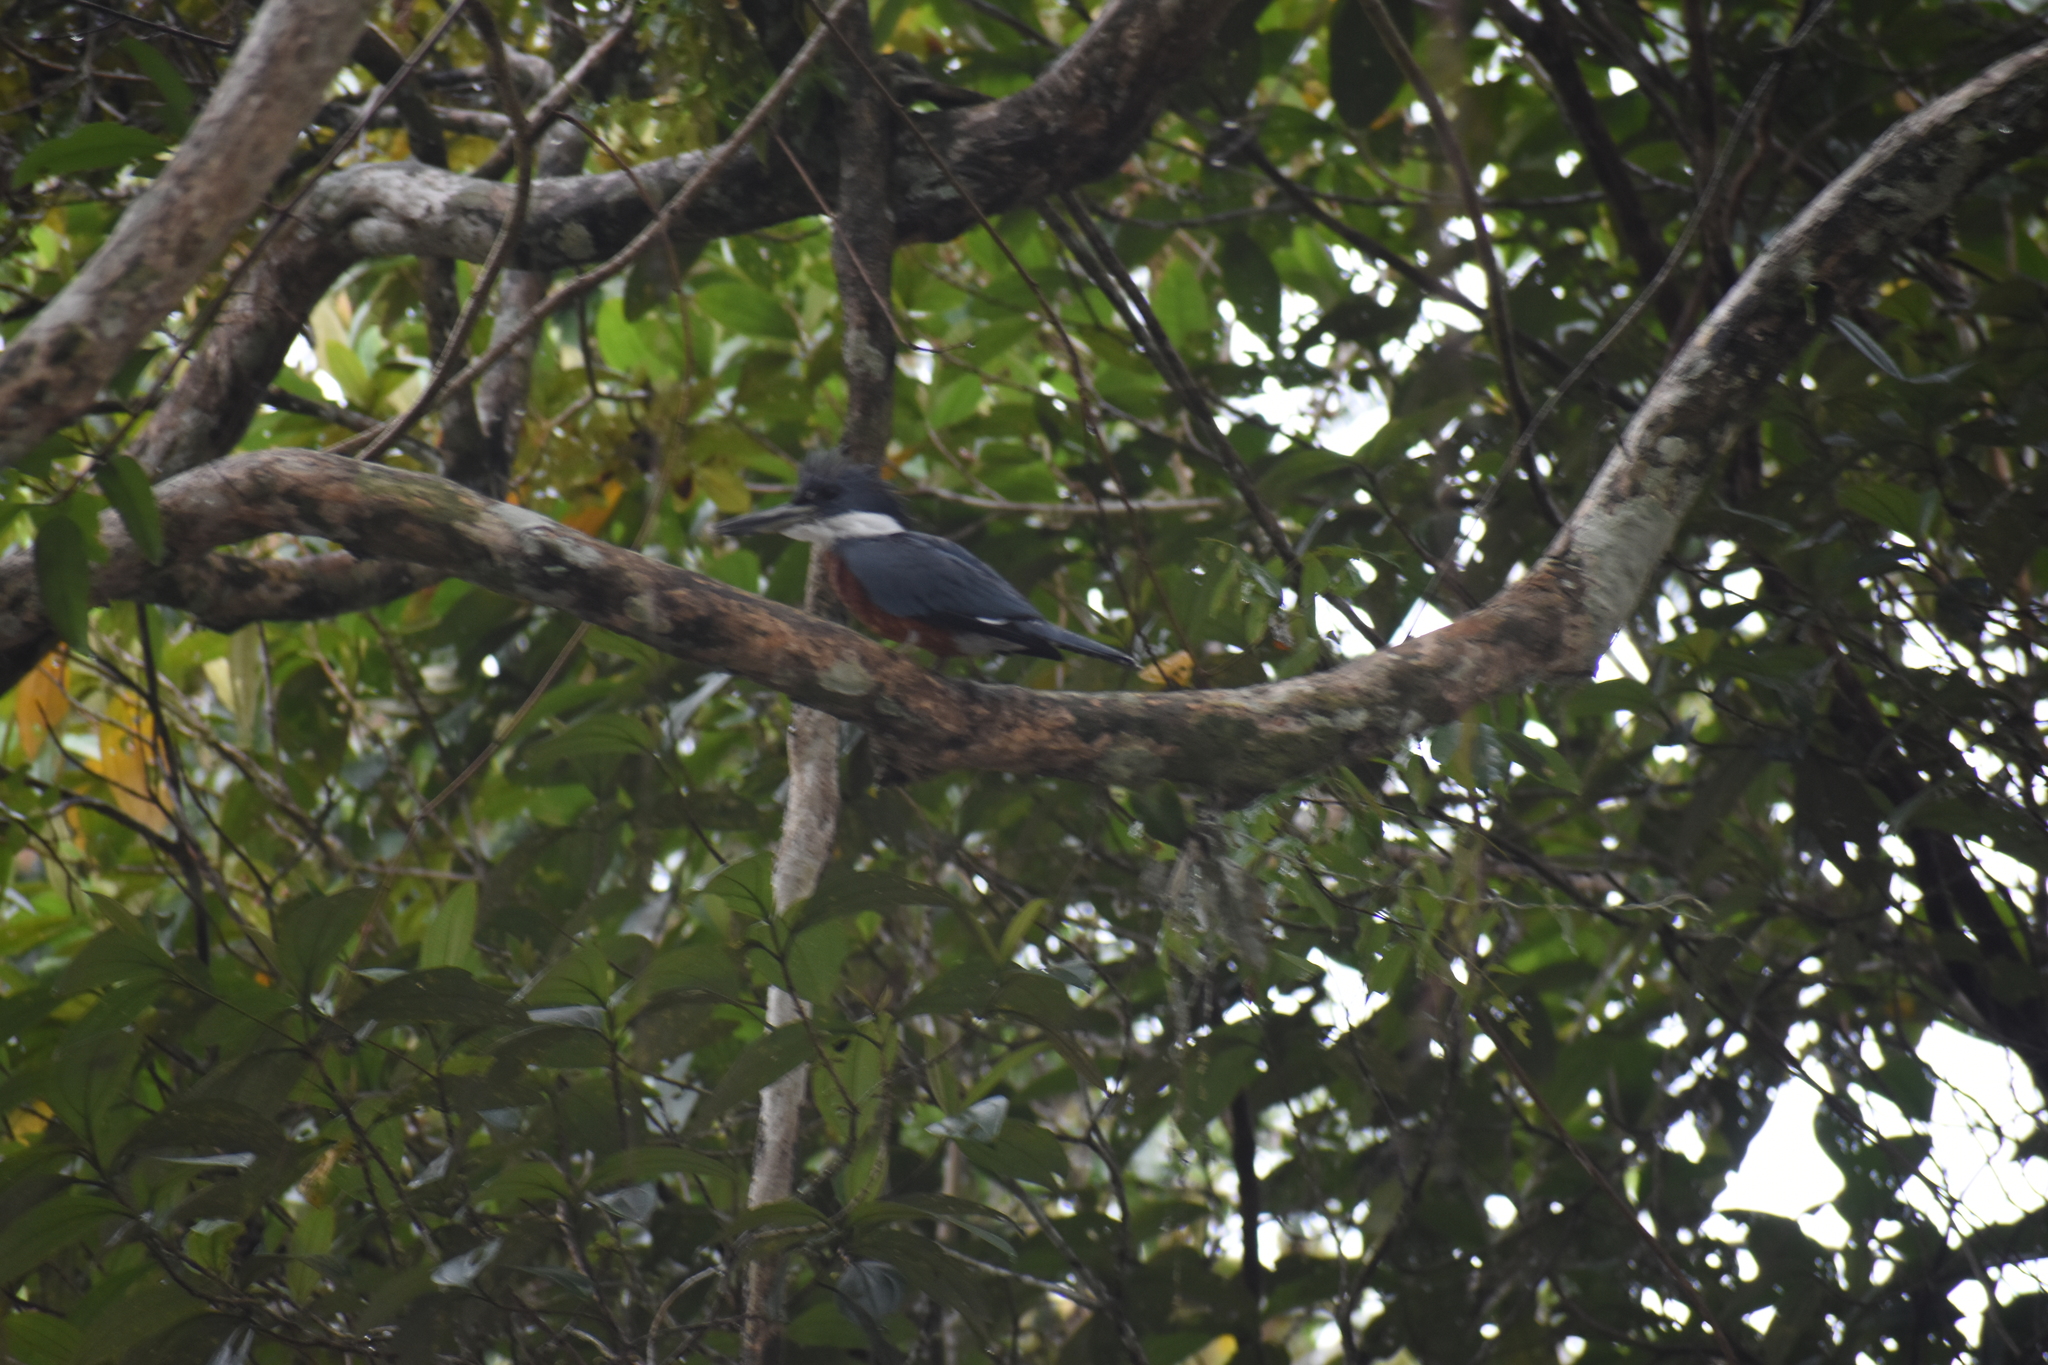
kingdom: Animalia
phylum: Chordata
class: Aves
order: Coraciiformes
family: Alcedinidae
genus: Megaceryle
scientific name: Megaceryle torquata
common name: Ringed kingfisher
